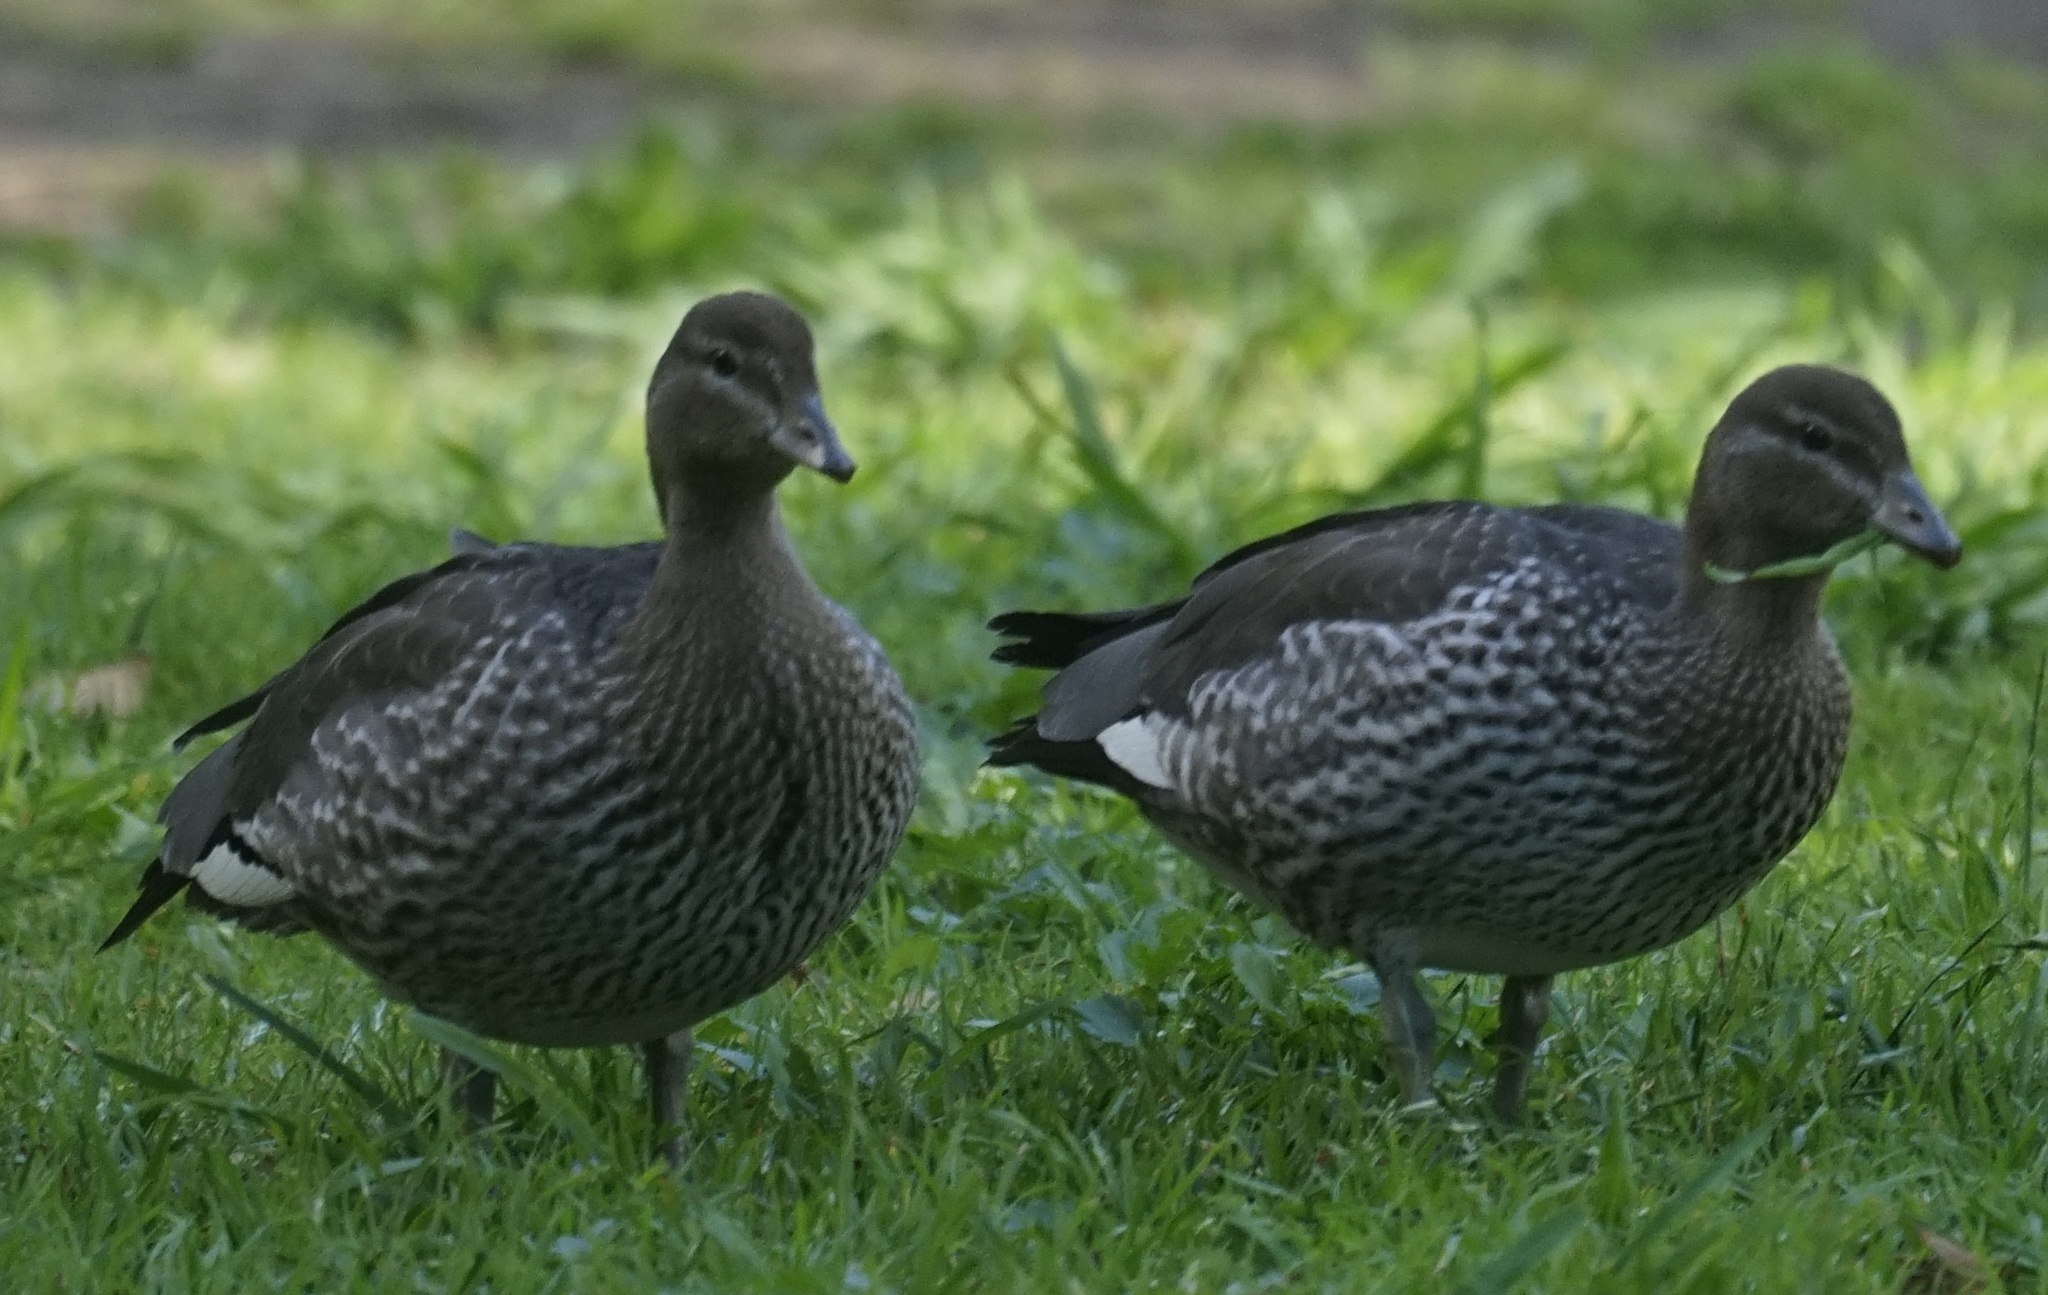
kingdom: Animalia
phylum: Chordata
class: Aves
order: Anseriformes
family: Anatidae
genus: Chenonetta
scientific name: Chenonetta jubata
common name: Maned duck
